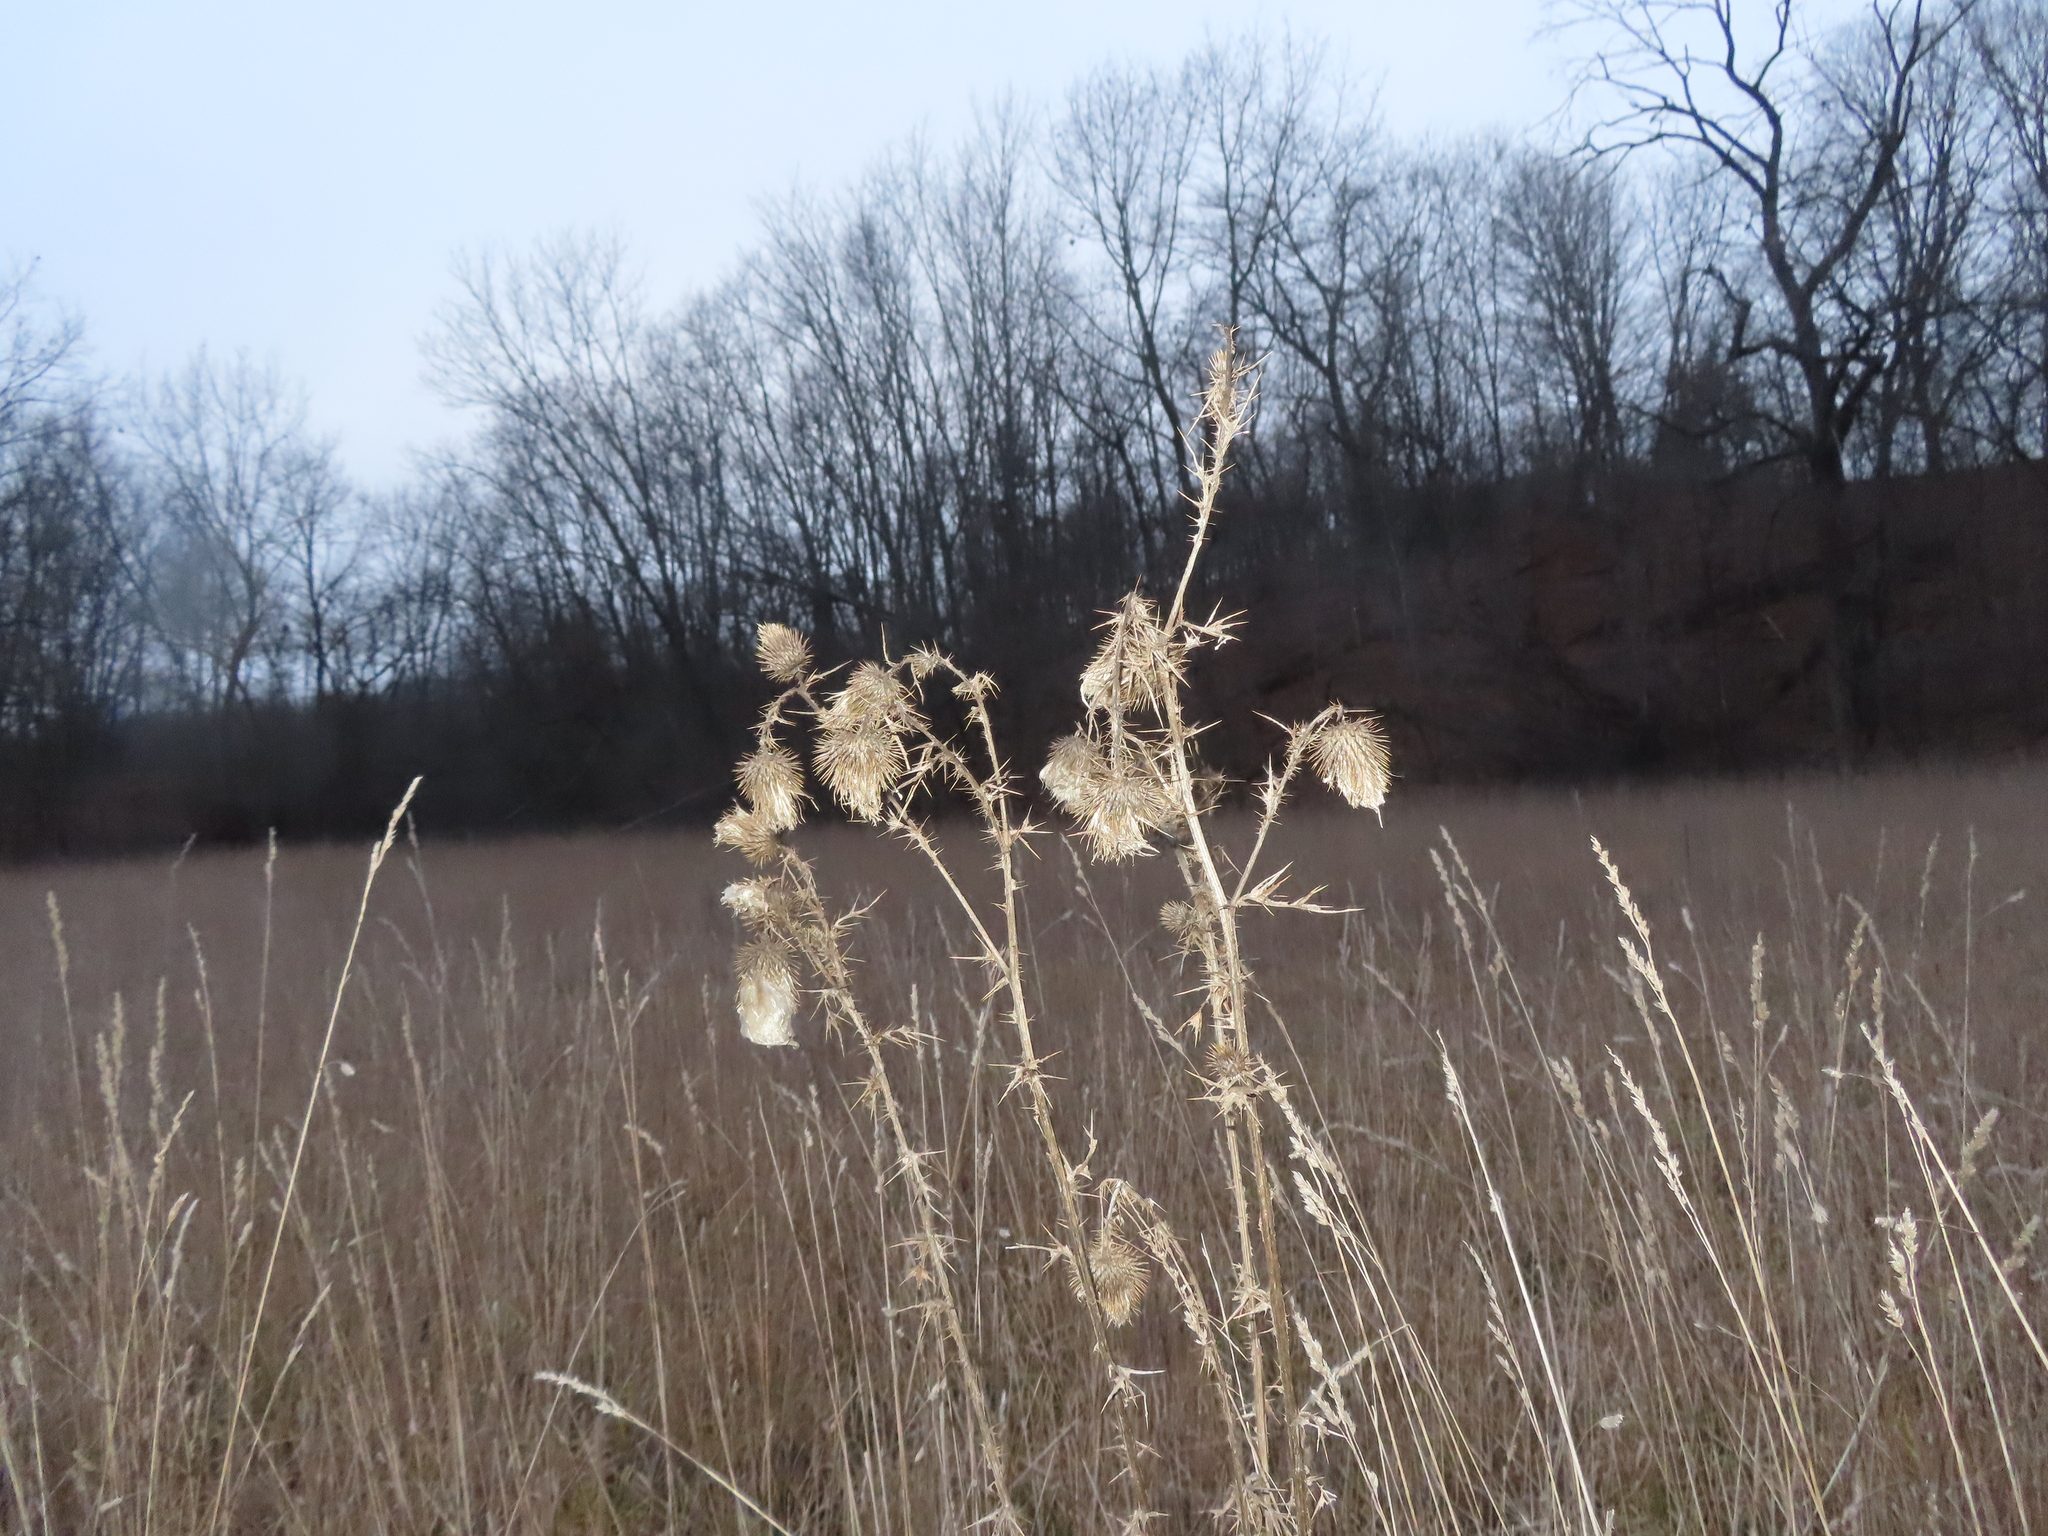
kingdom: Plantae
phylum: Tracheophyta
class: Magnoliopsida
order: Asterales
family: Asteraceae
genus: Cirsium
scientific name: Cirsium vulgare
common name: Bull thistle
